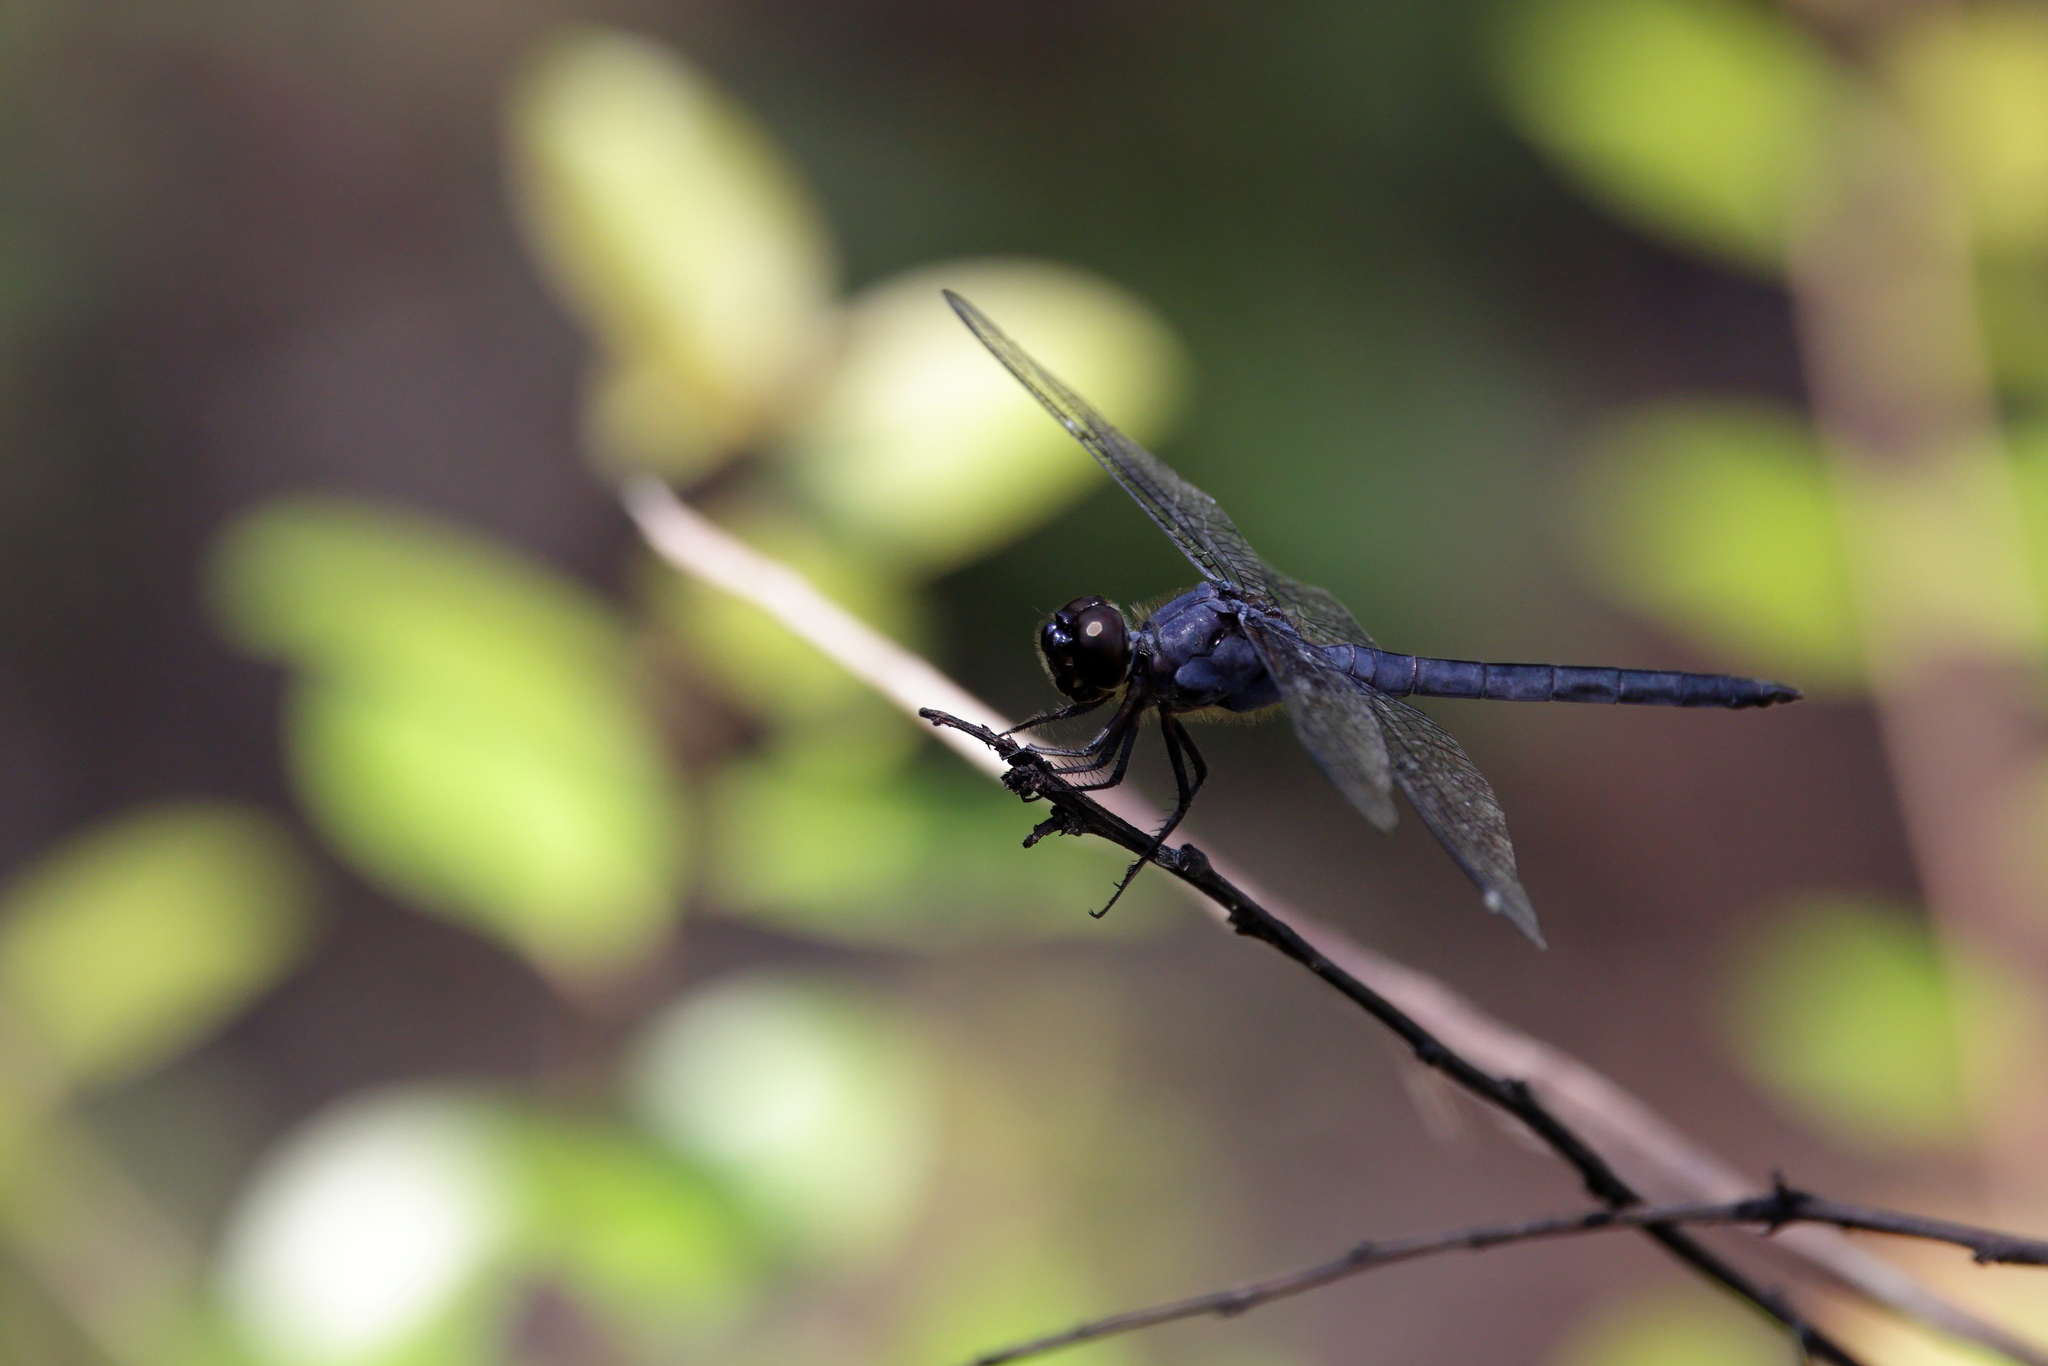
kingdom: Animalia
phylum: Arthropoda
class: Insecta
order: Odonata
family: Libellulidae
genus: Libellula
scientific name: Libellula incesta
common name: Slaty skimmer
